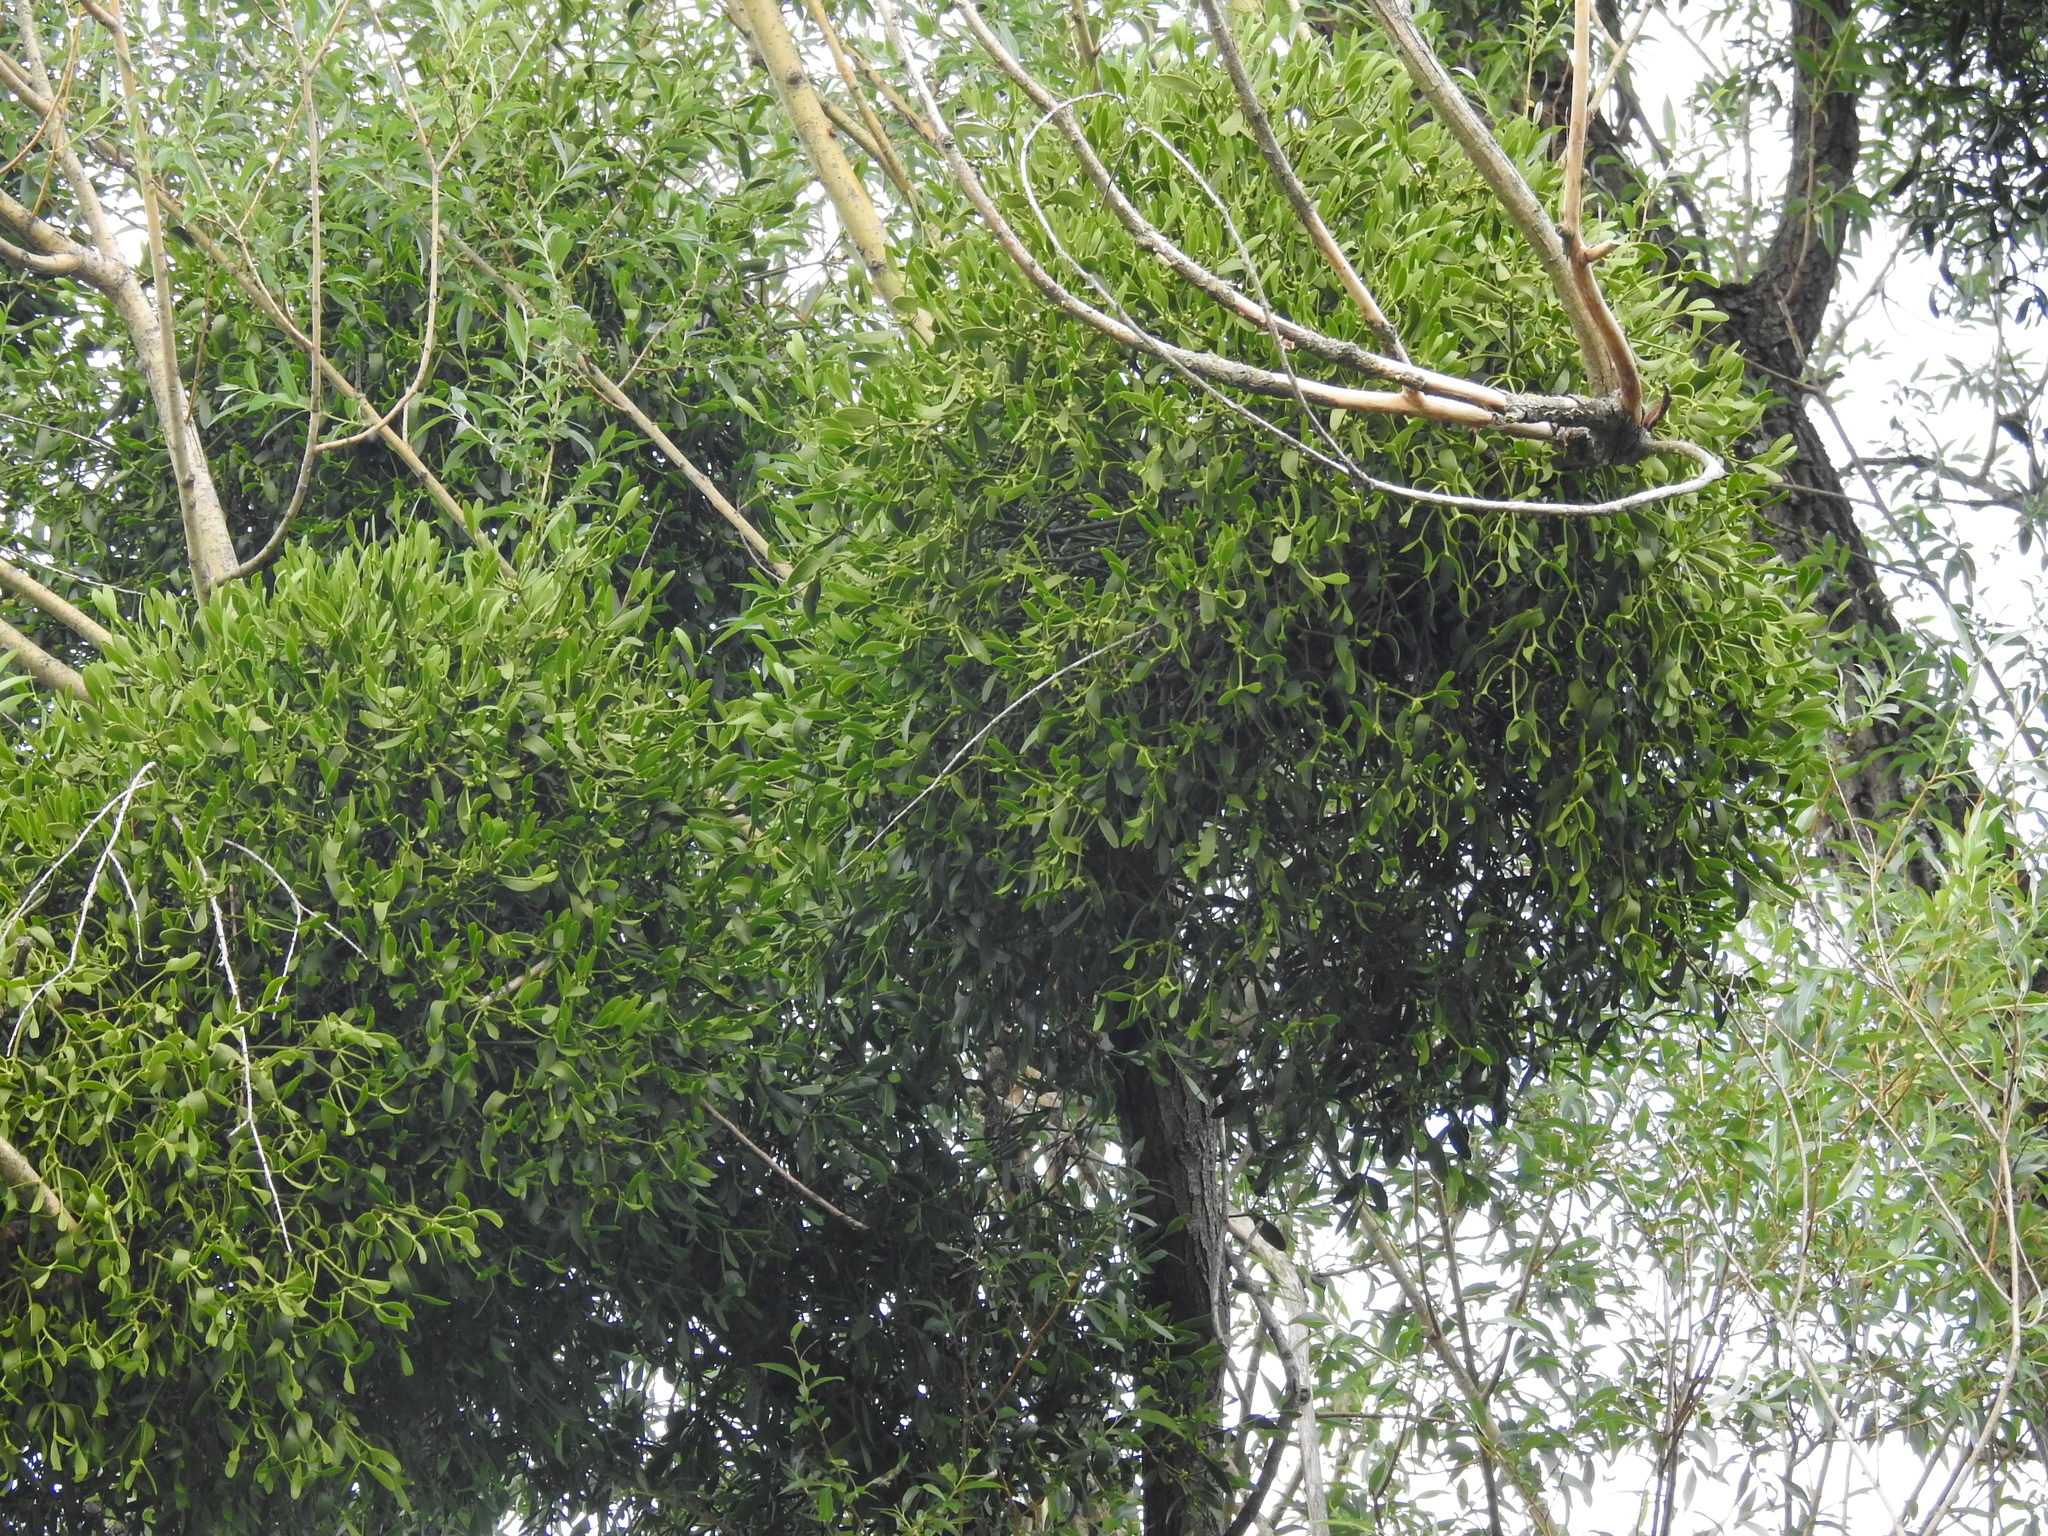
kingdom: Plantae
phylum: Tracheophyta
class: Magnoliopsida
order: Santalales
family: Viscaceae
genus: Viscum
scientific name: Viscum album
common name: Mistletoe
